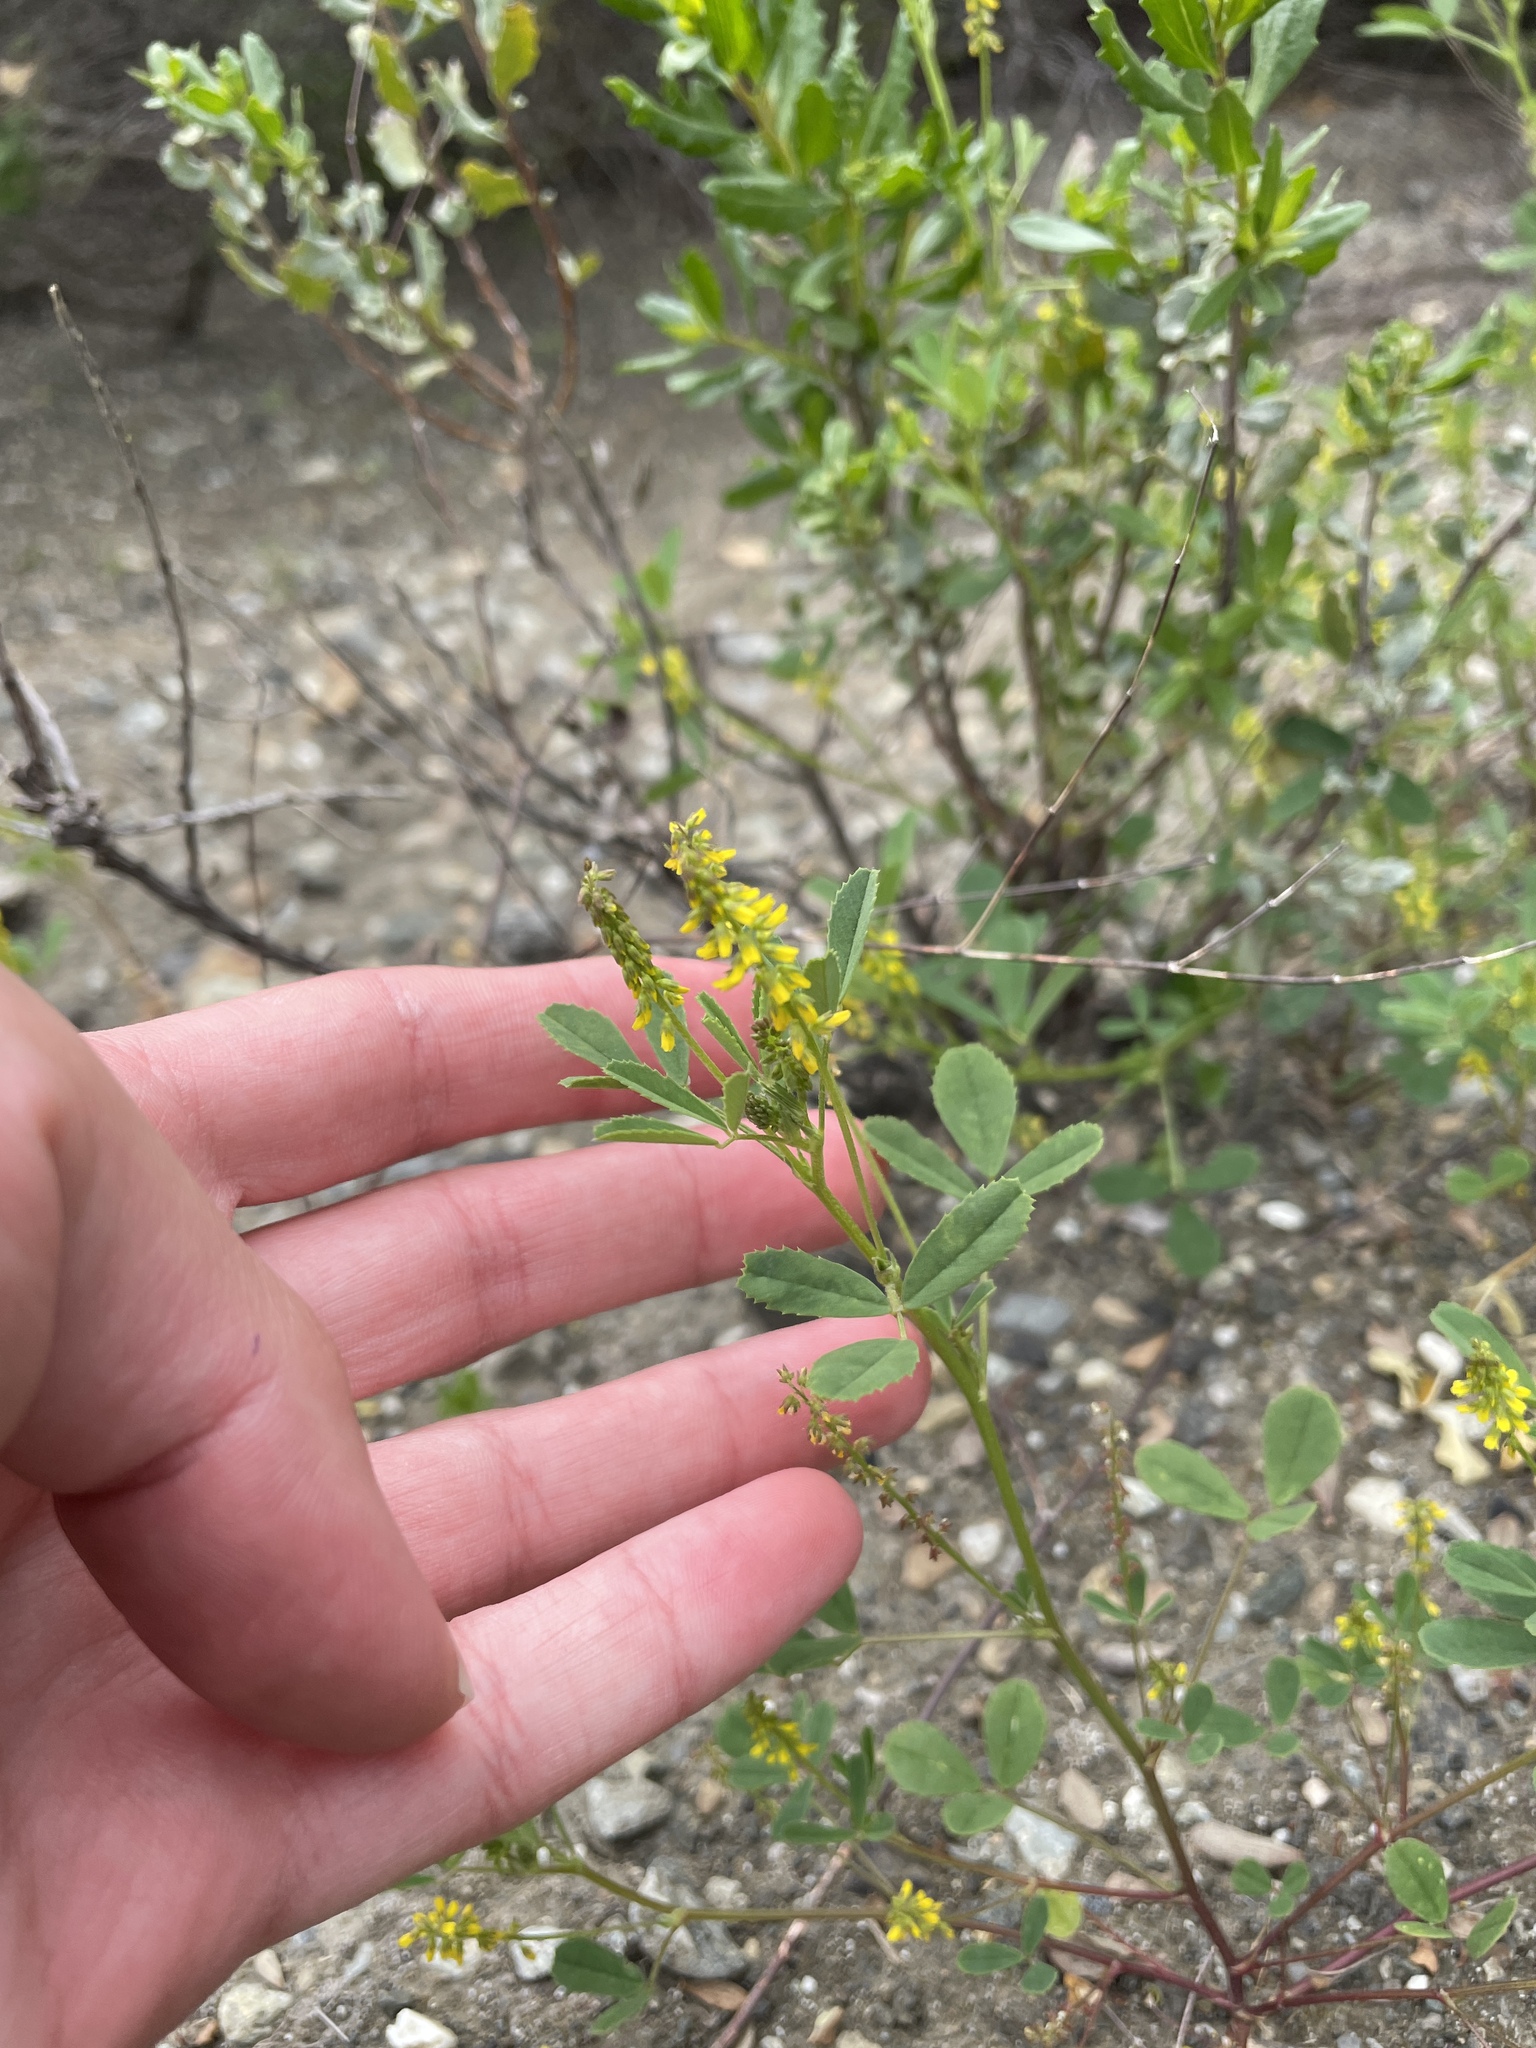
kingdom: Plantae
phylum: Tracheophyta
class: Magnoliopsida
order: Fabales
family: Fabaceae
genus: Melilotus
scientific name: Melilotus indicus
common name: Small melilot
